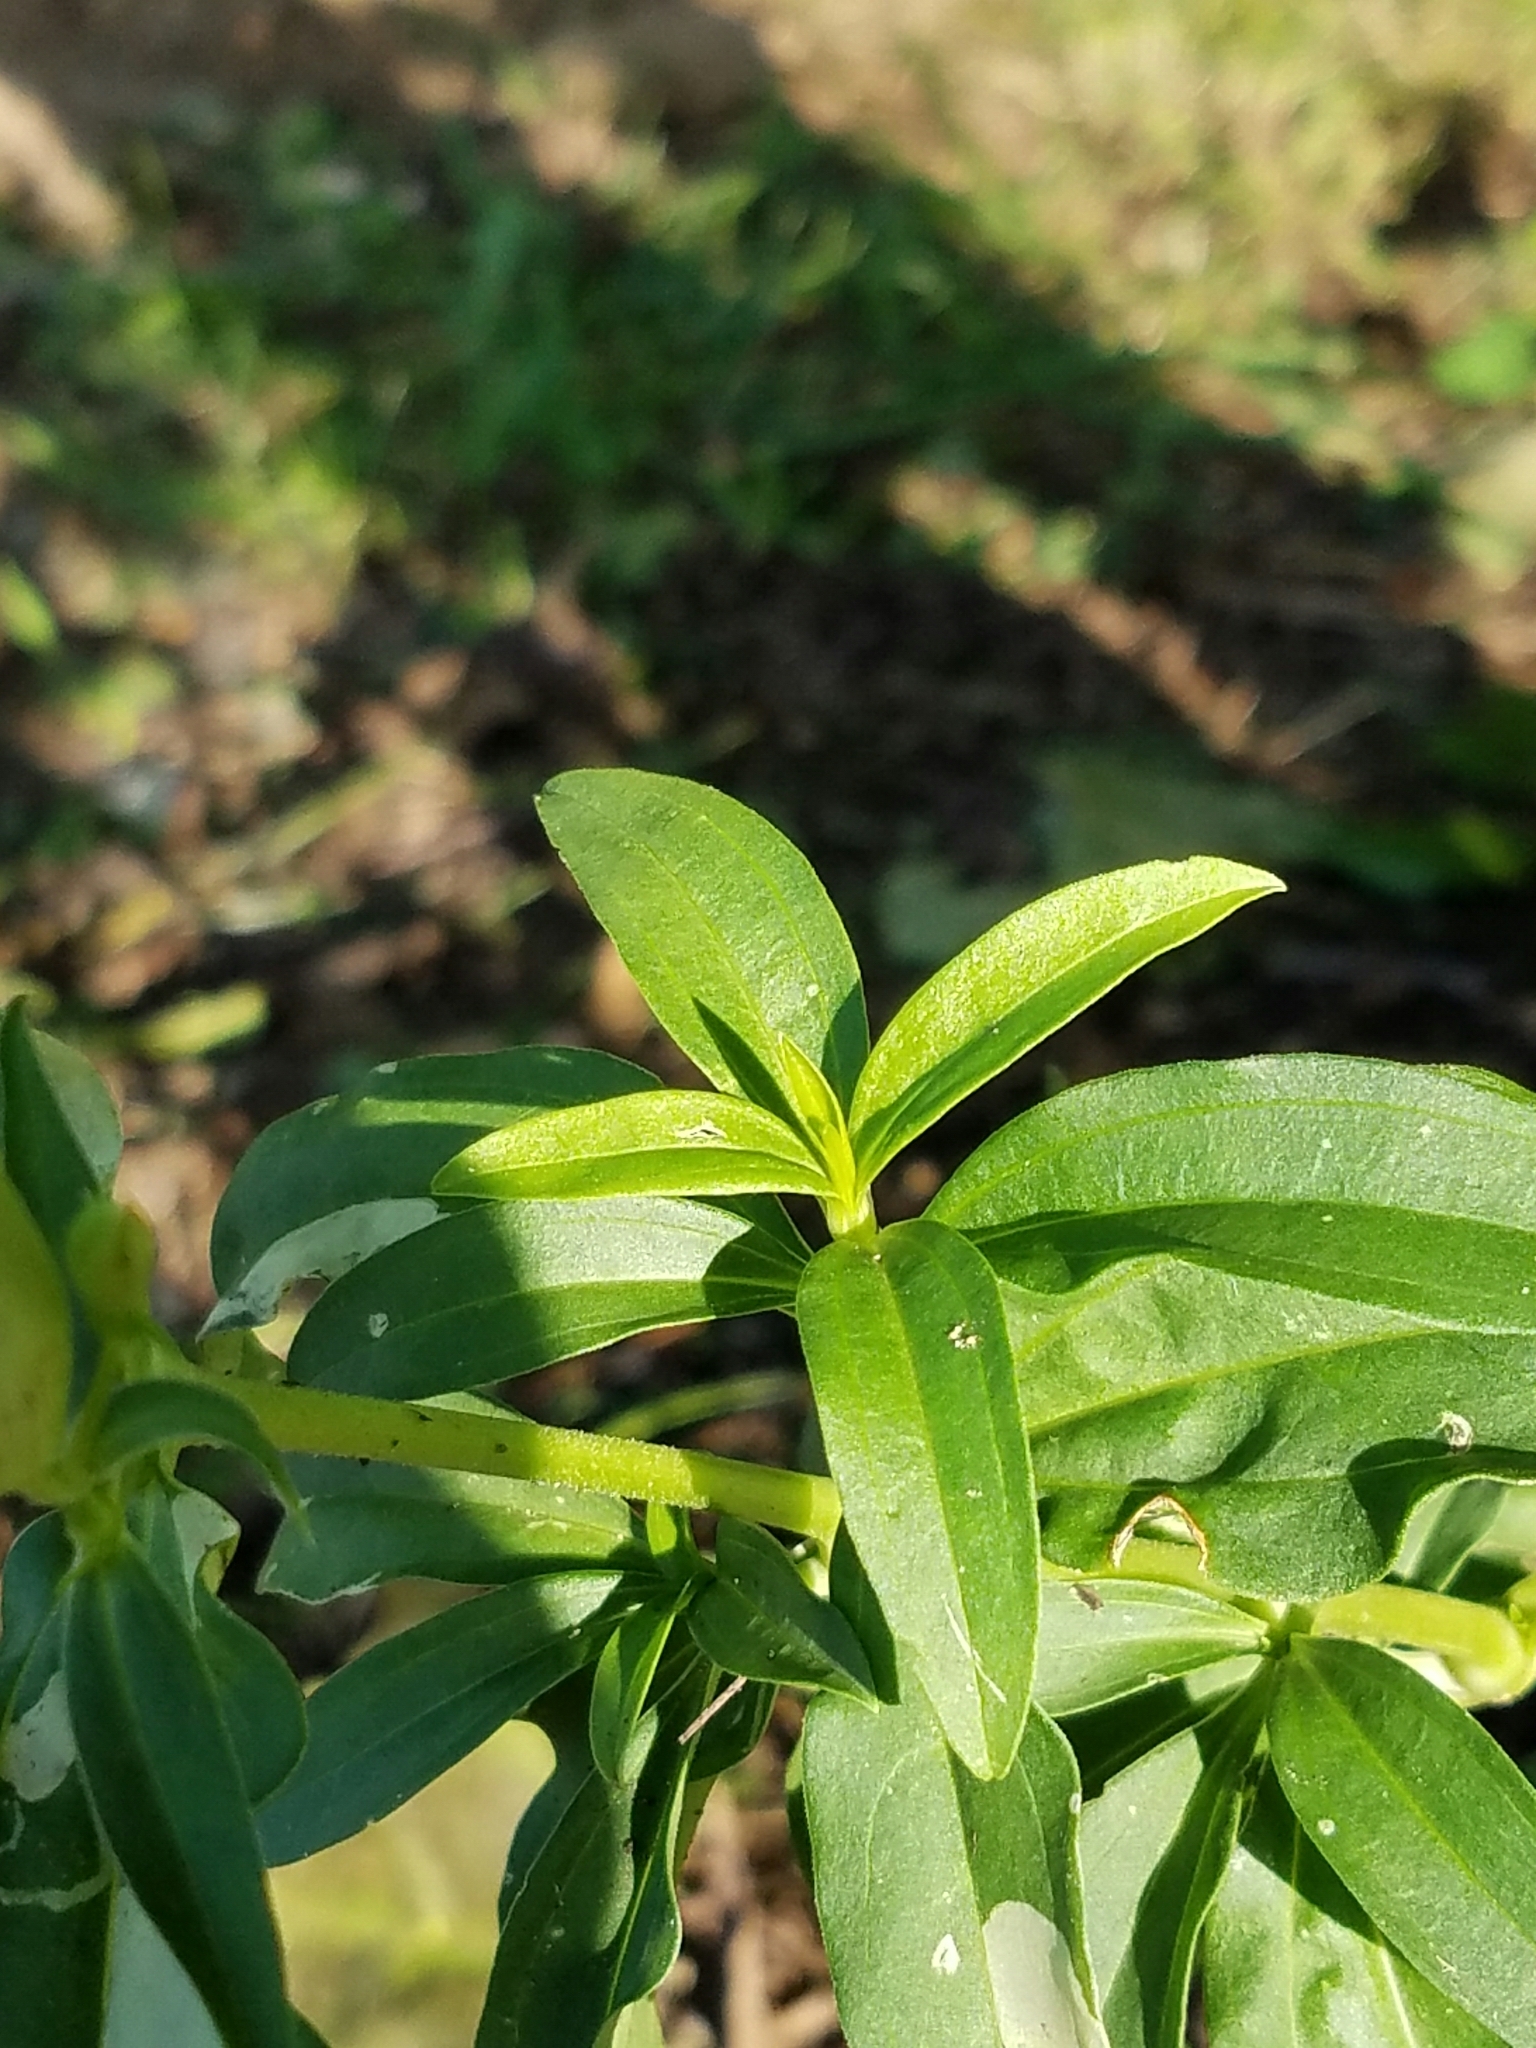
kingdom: Plantae
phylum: Tracheophyta
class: Magnoliopsida
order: Caryophyllales
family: Caryophyllaceae
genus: Saponaria
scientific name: Saponaria officinalis
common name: Soapwort
